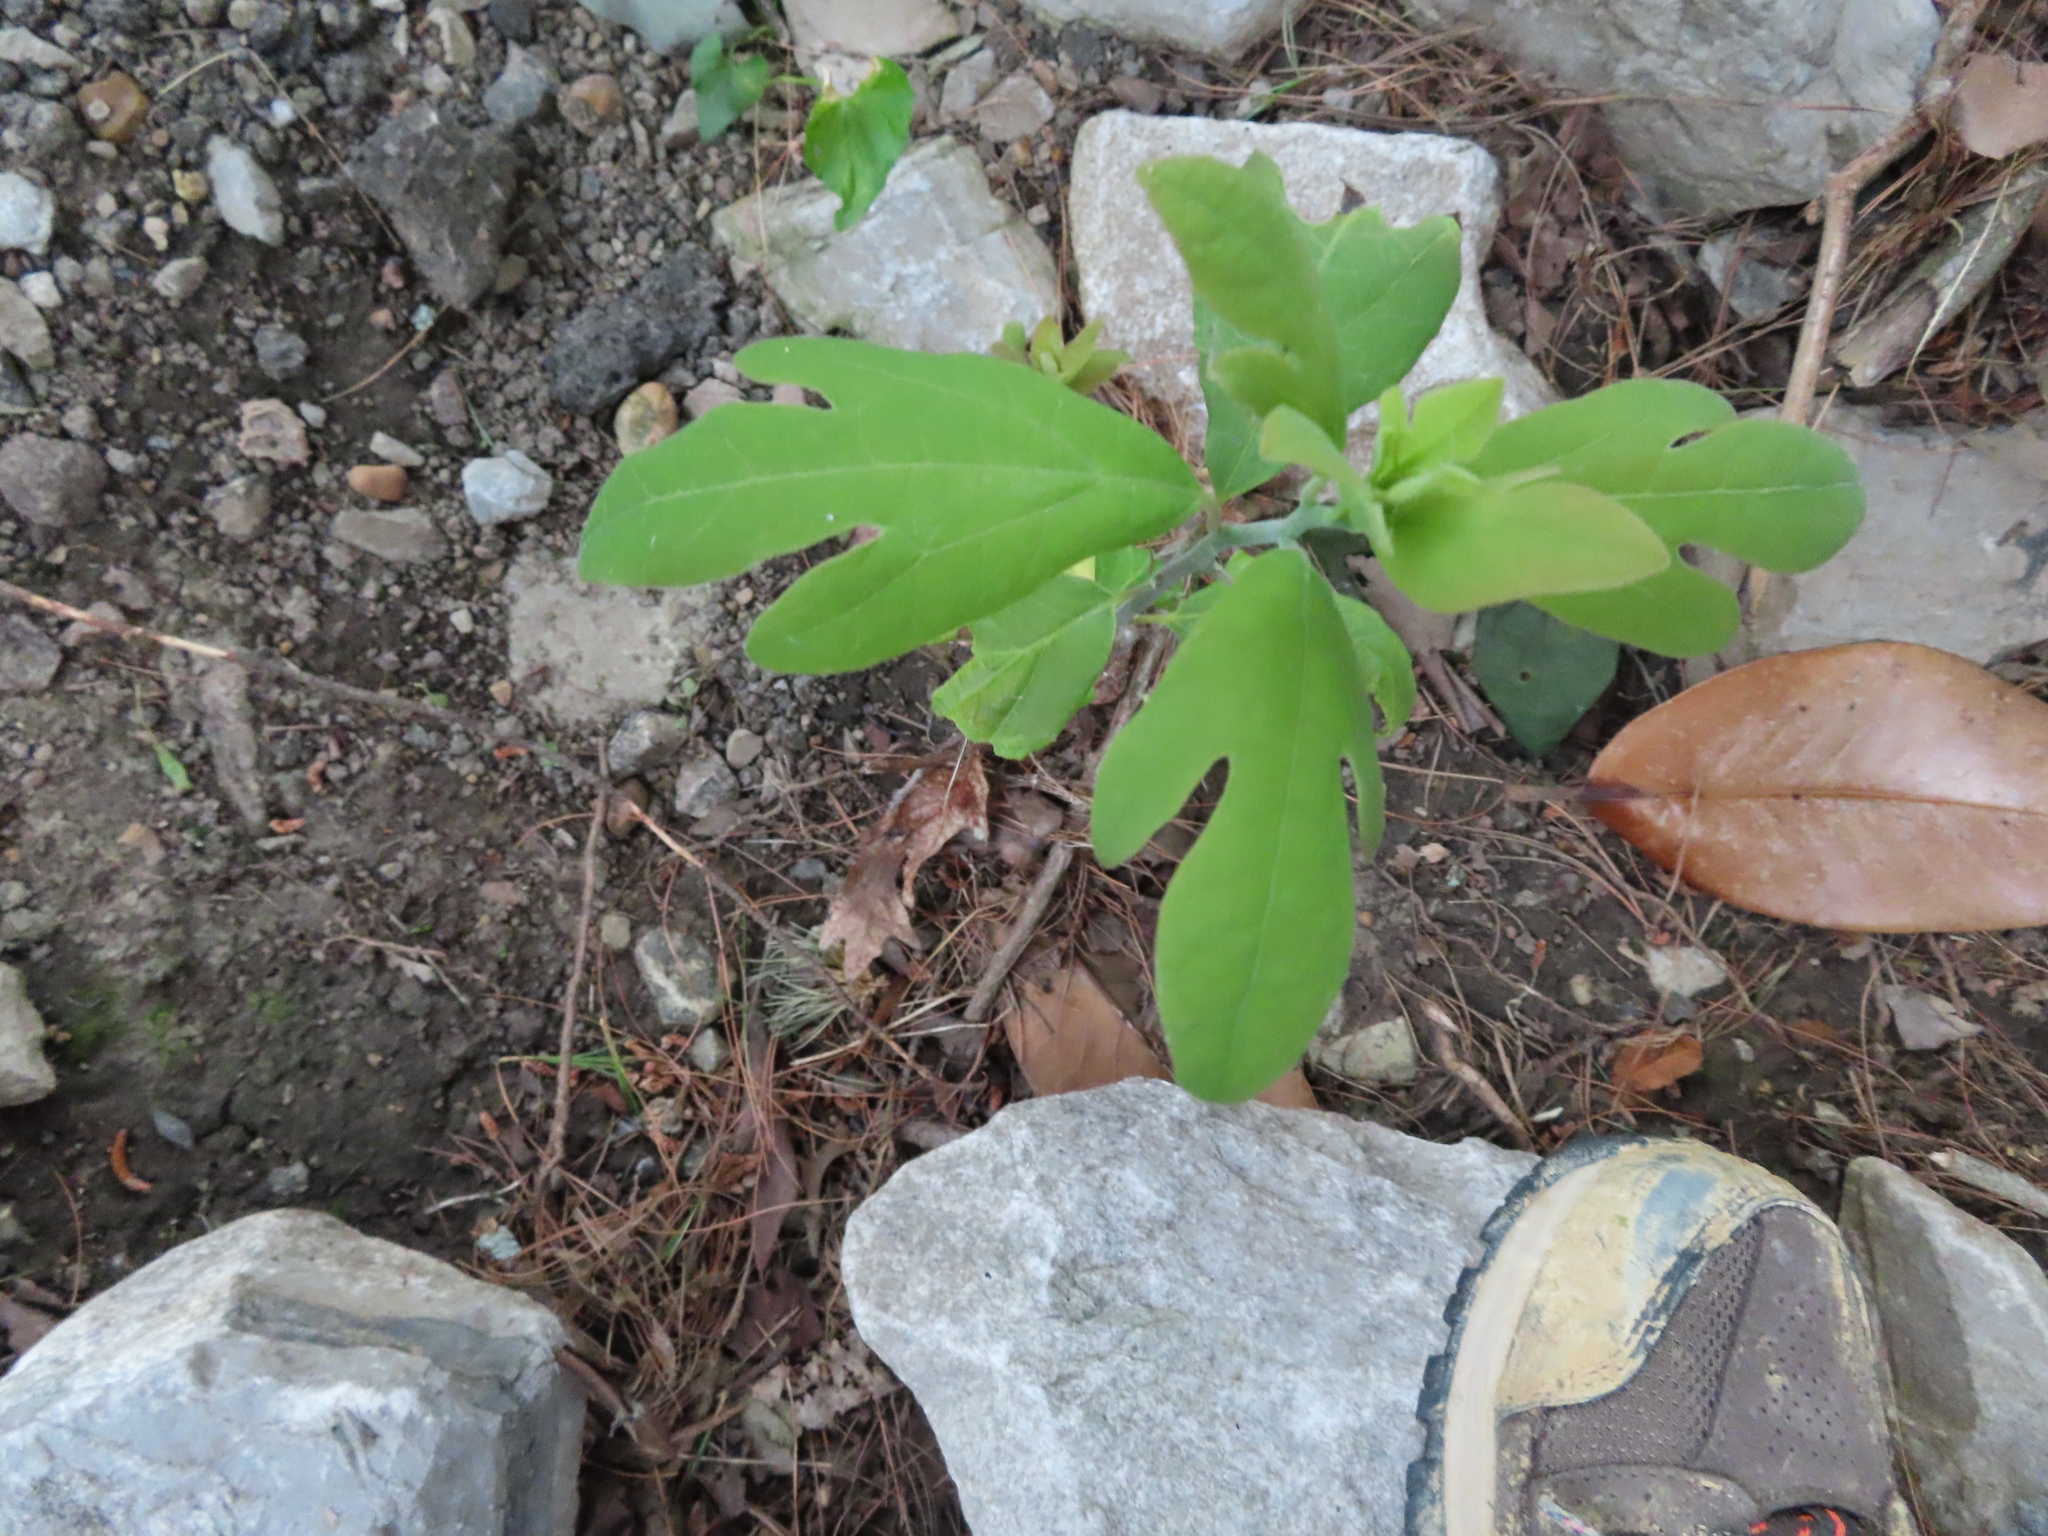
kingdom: Plantae
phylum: Tracheophyta
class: Magnoliopsida
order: Laurales
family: Lauraceae
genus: Sassafras
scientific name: Sassafras albidum
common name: Sassafras
